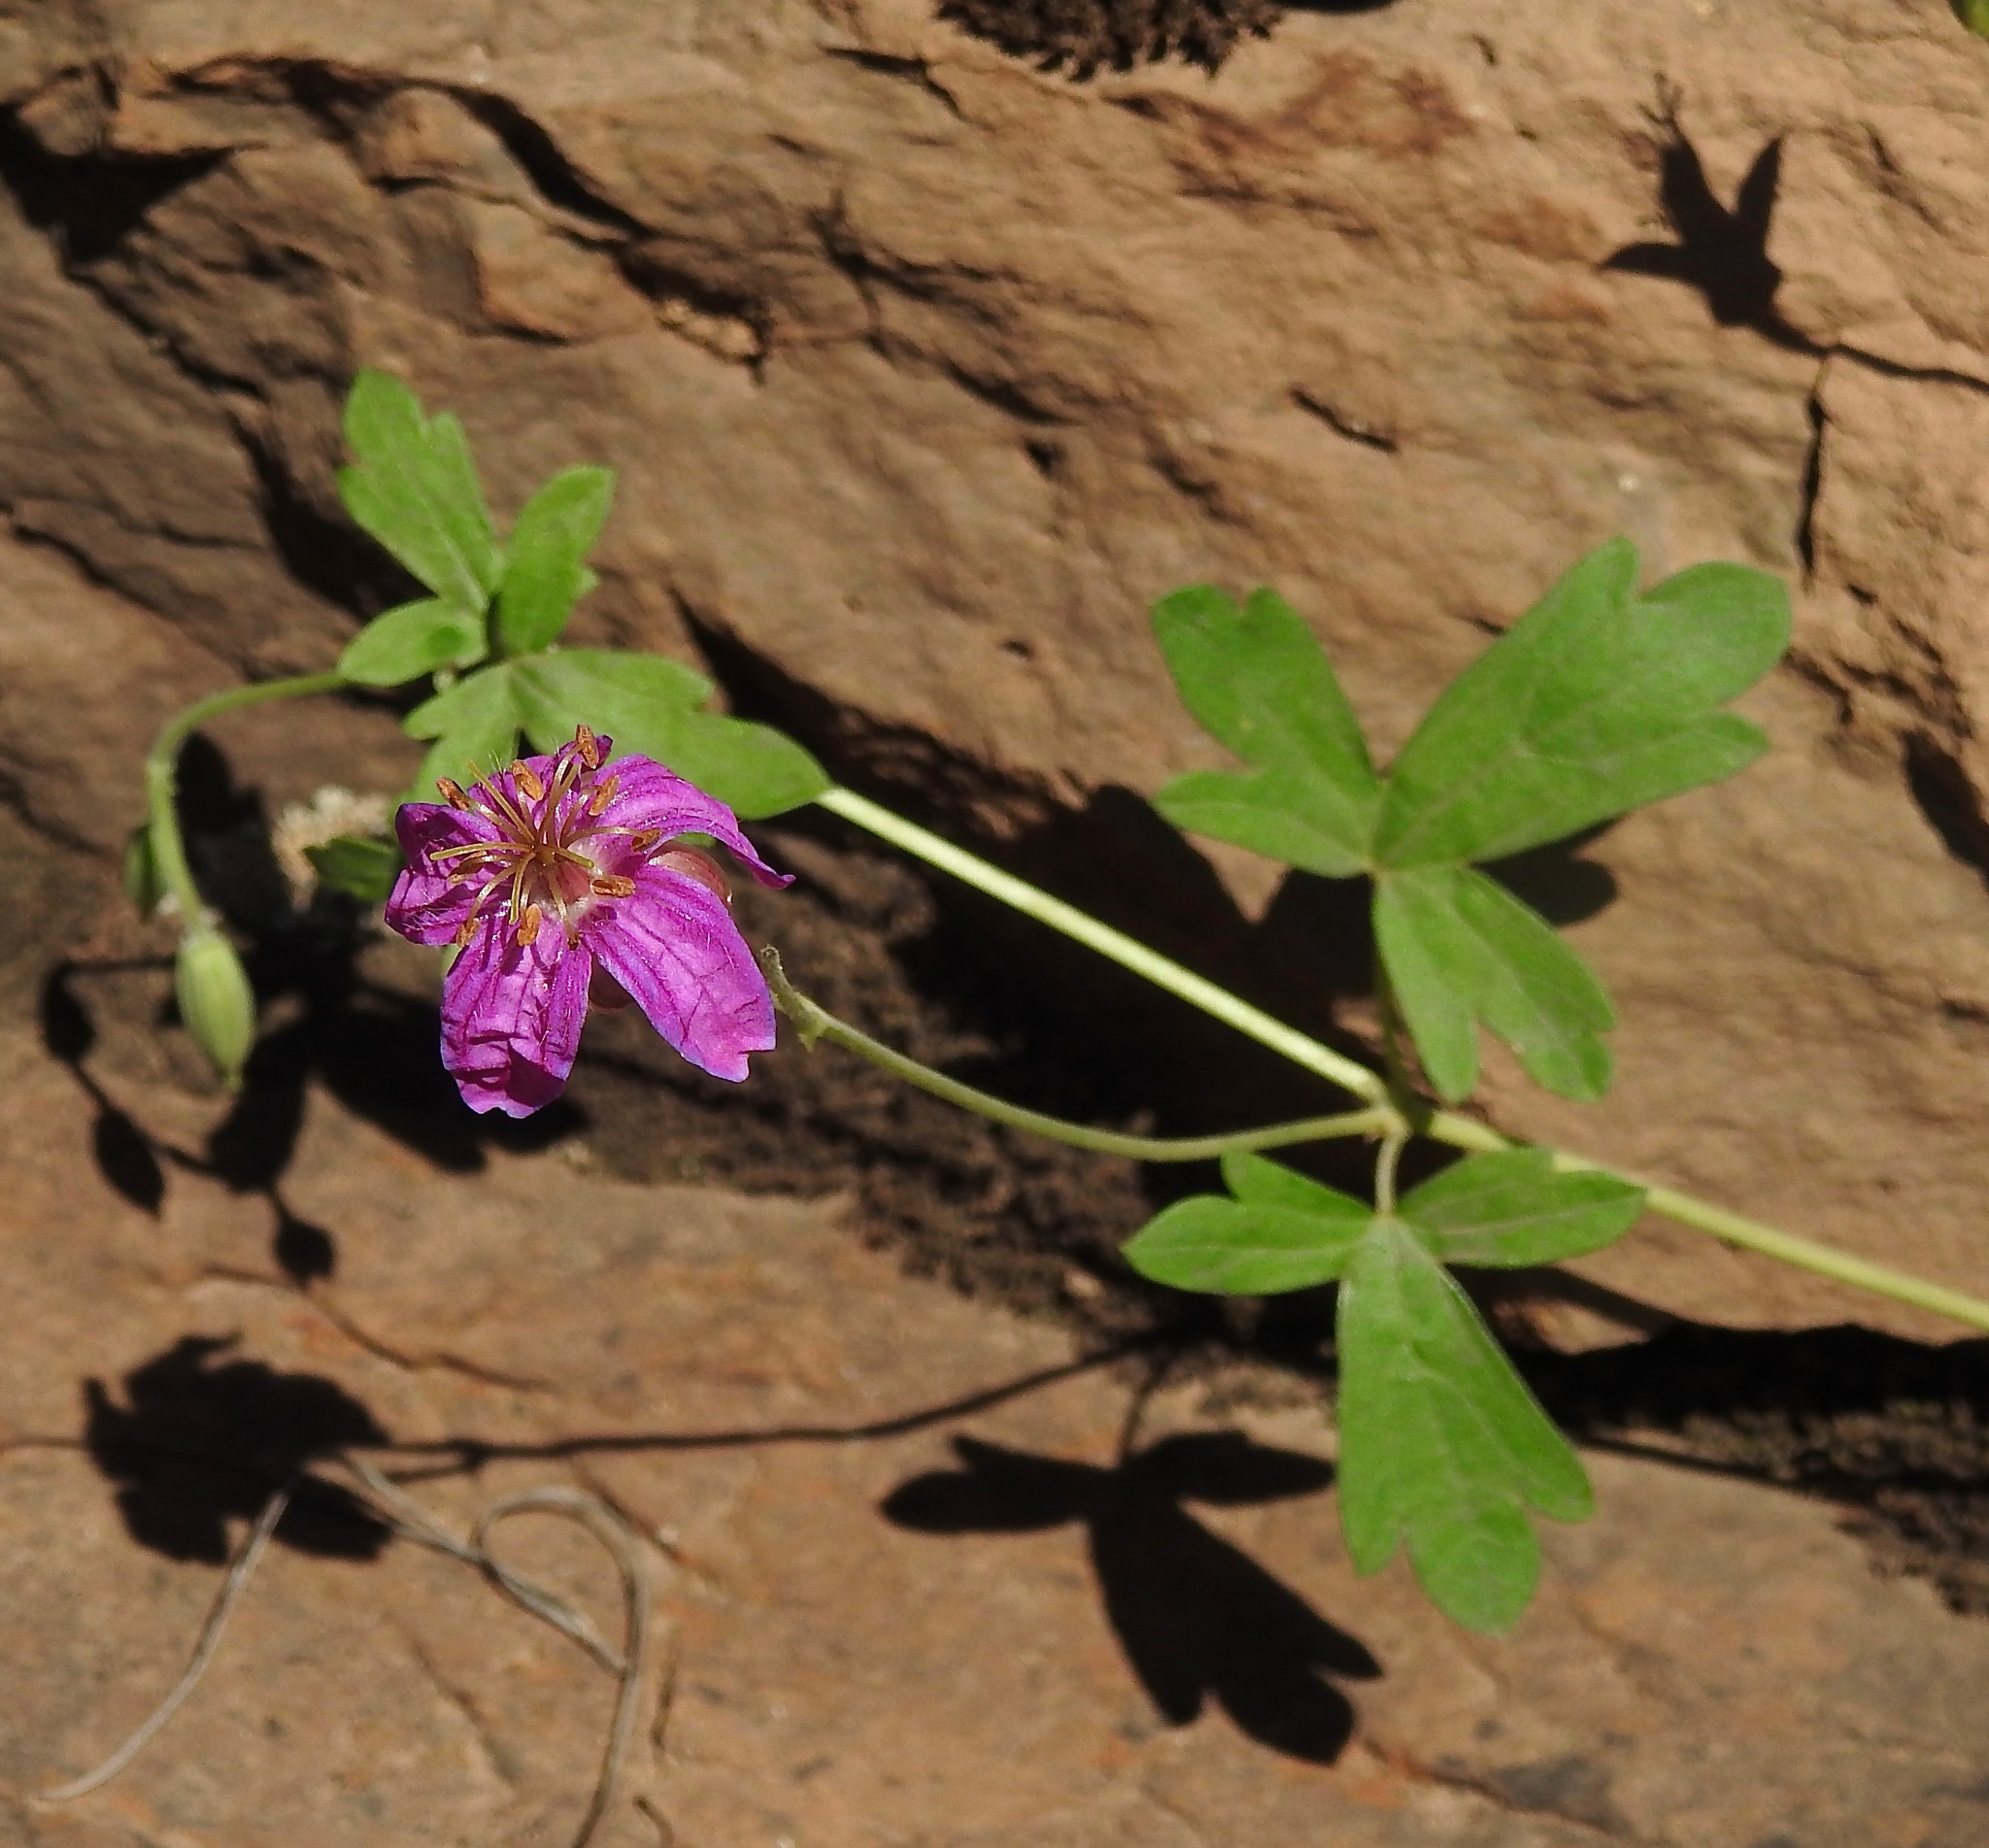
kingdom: Plantae
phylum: Tracheophyta
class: Magnoliopsida
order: Geraniales
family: Geraniaceae
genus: Geranium
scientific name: Geranium caespitosum
